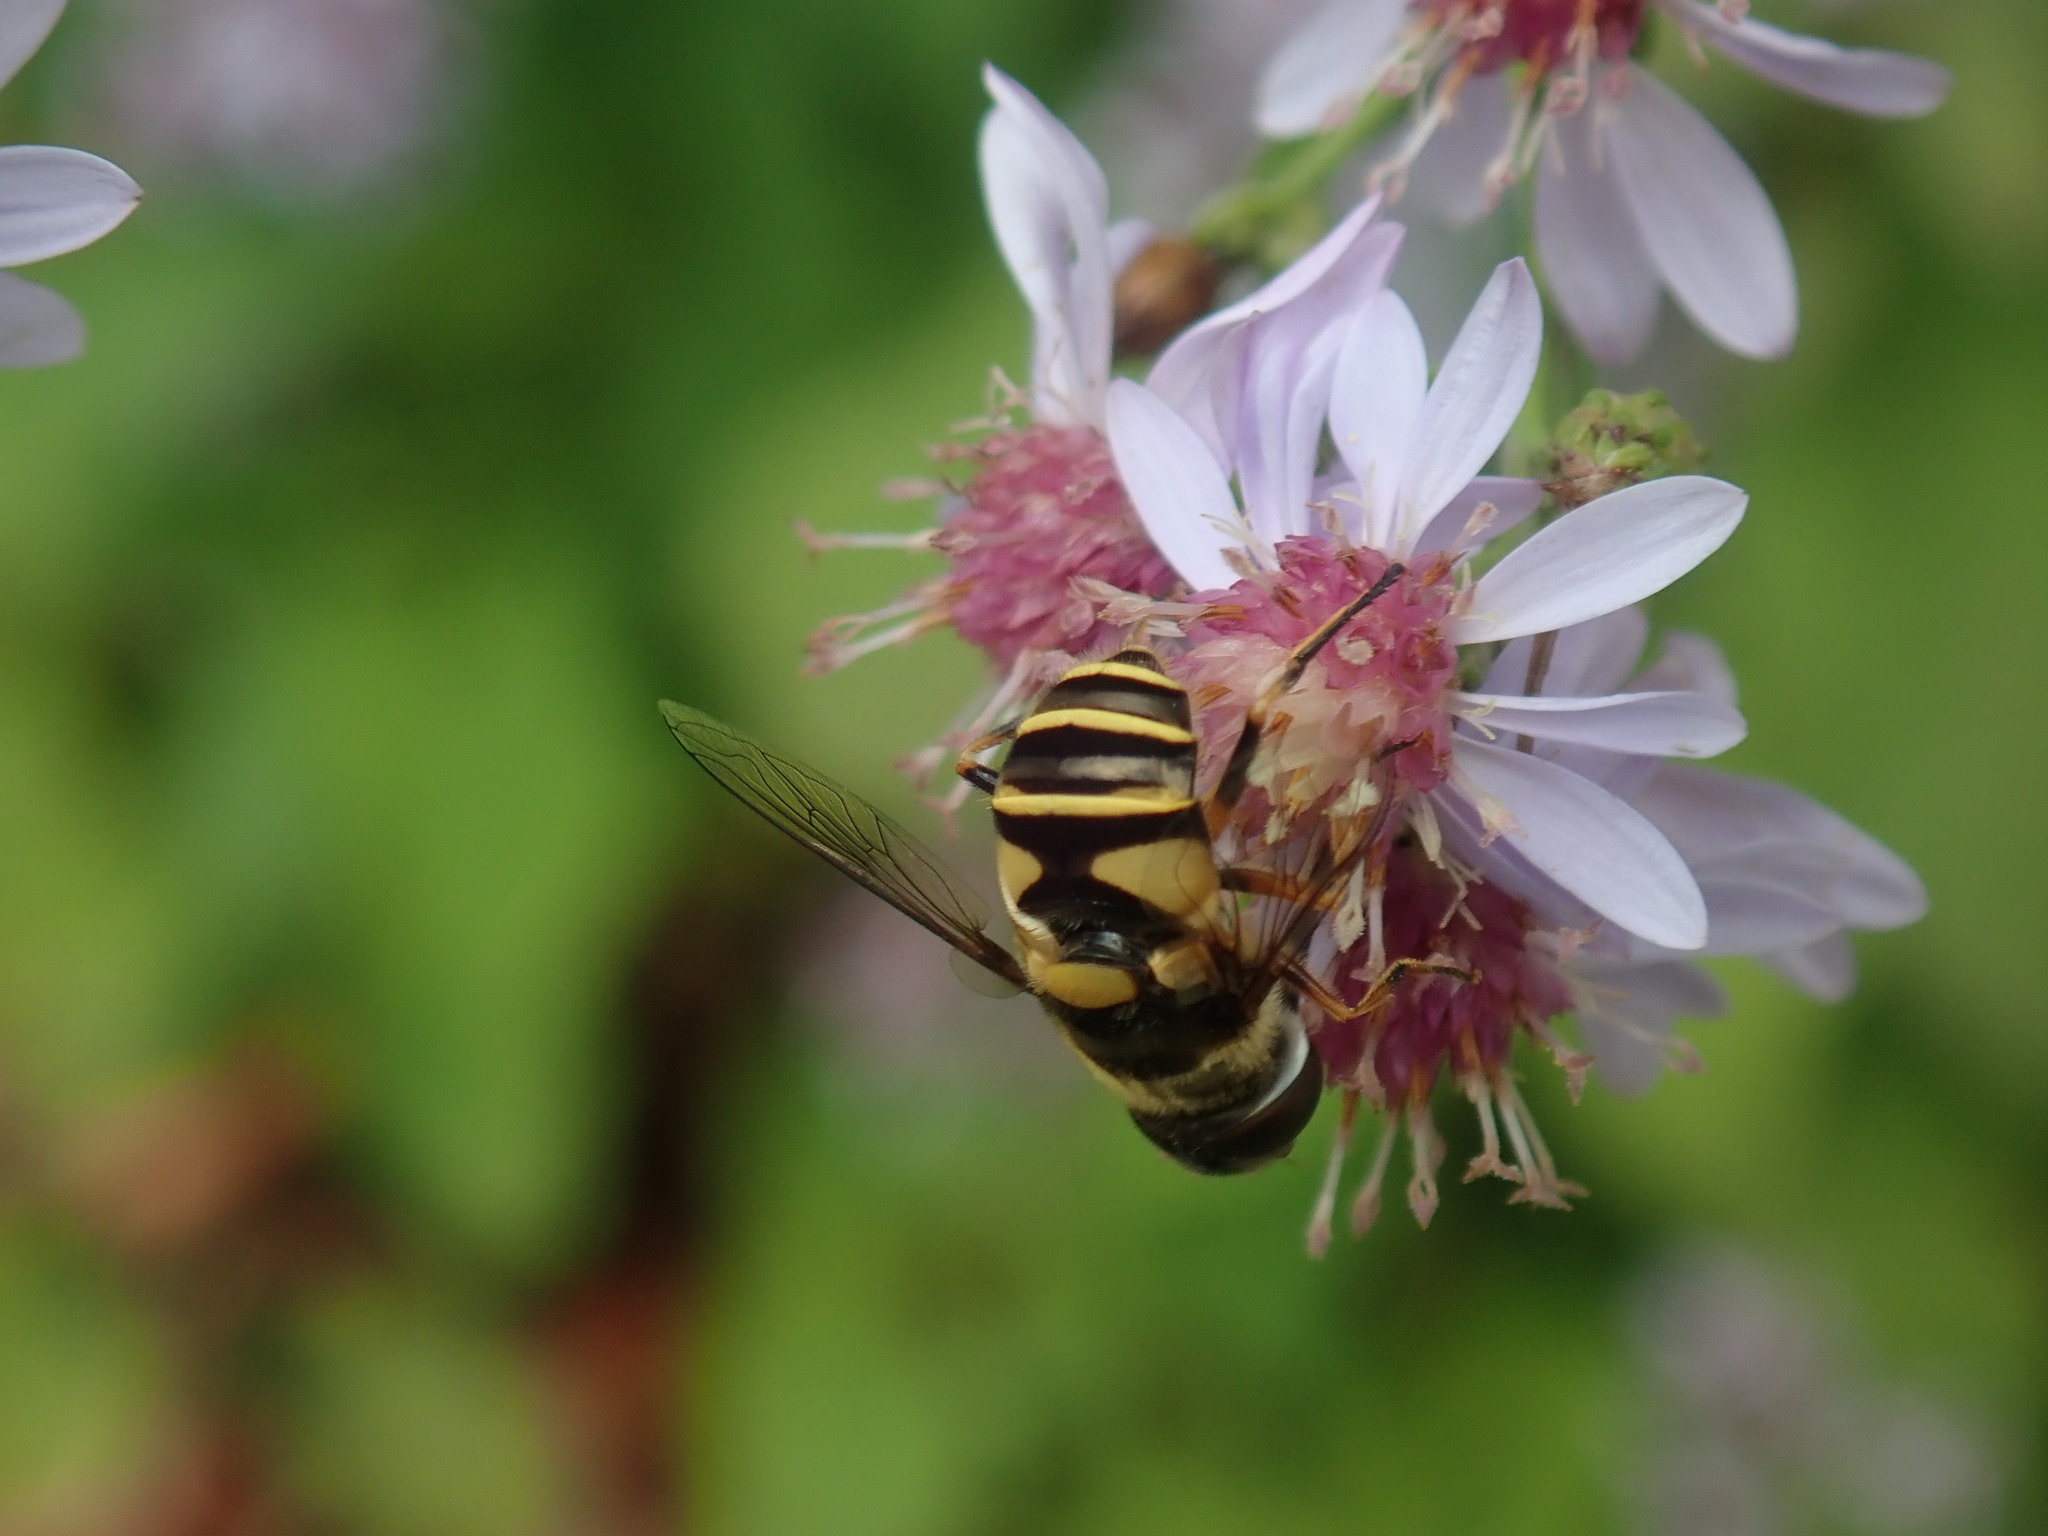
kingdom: Animalia
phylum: Arthropoda
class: Insecta
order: Diptera
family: Syrphidae
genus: Eristalis
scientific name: Eristalis transversa
